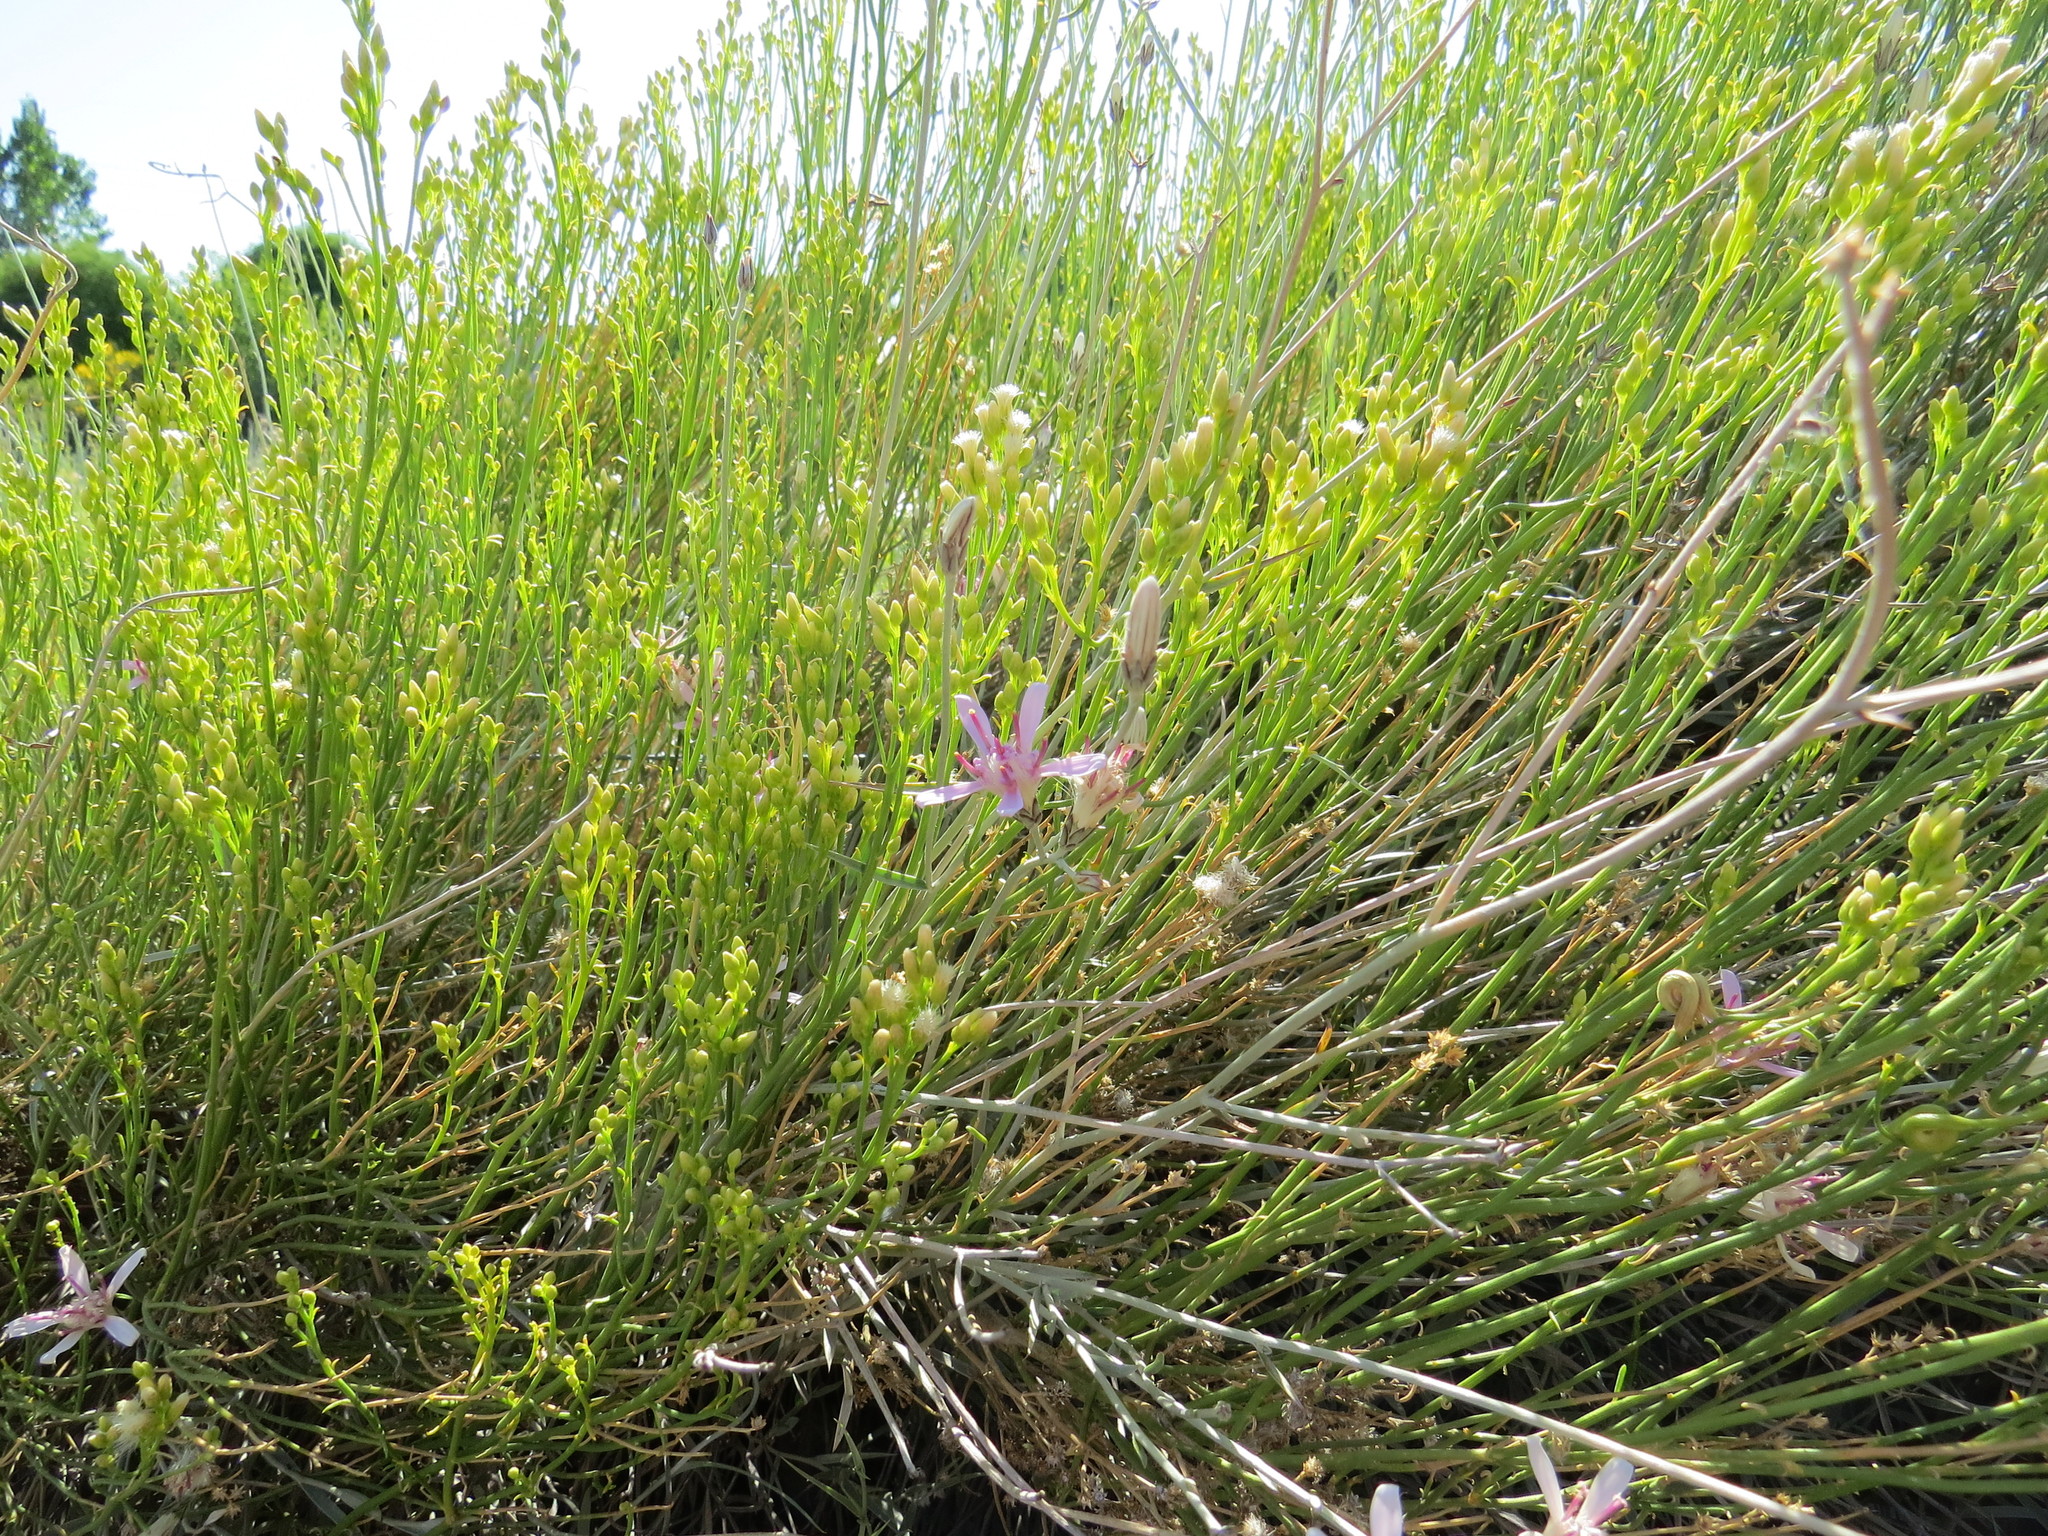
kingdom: Plantae
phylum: Tracheophyta
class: Magnoliopsida
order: Asterales
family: Asteraceae
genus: Hyalis
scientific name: Hyalis argentea
